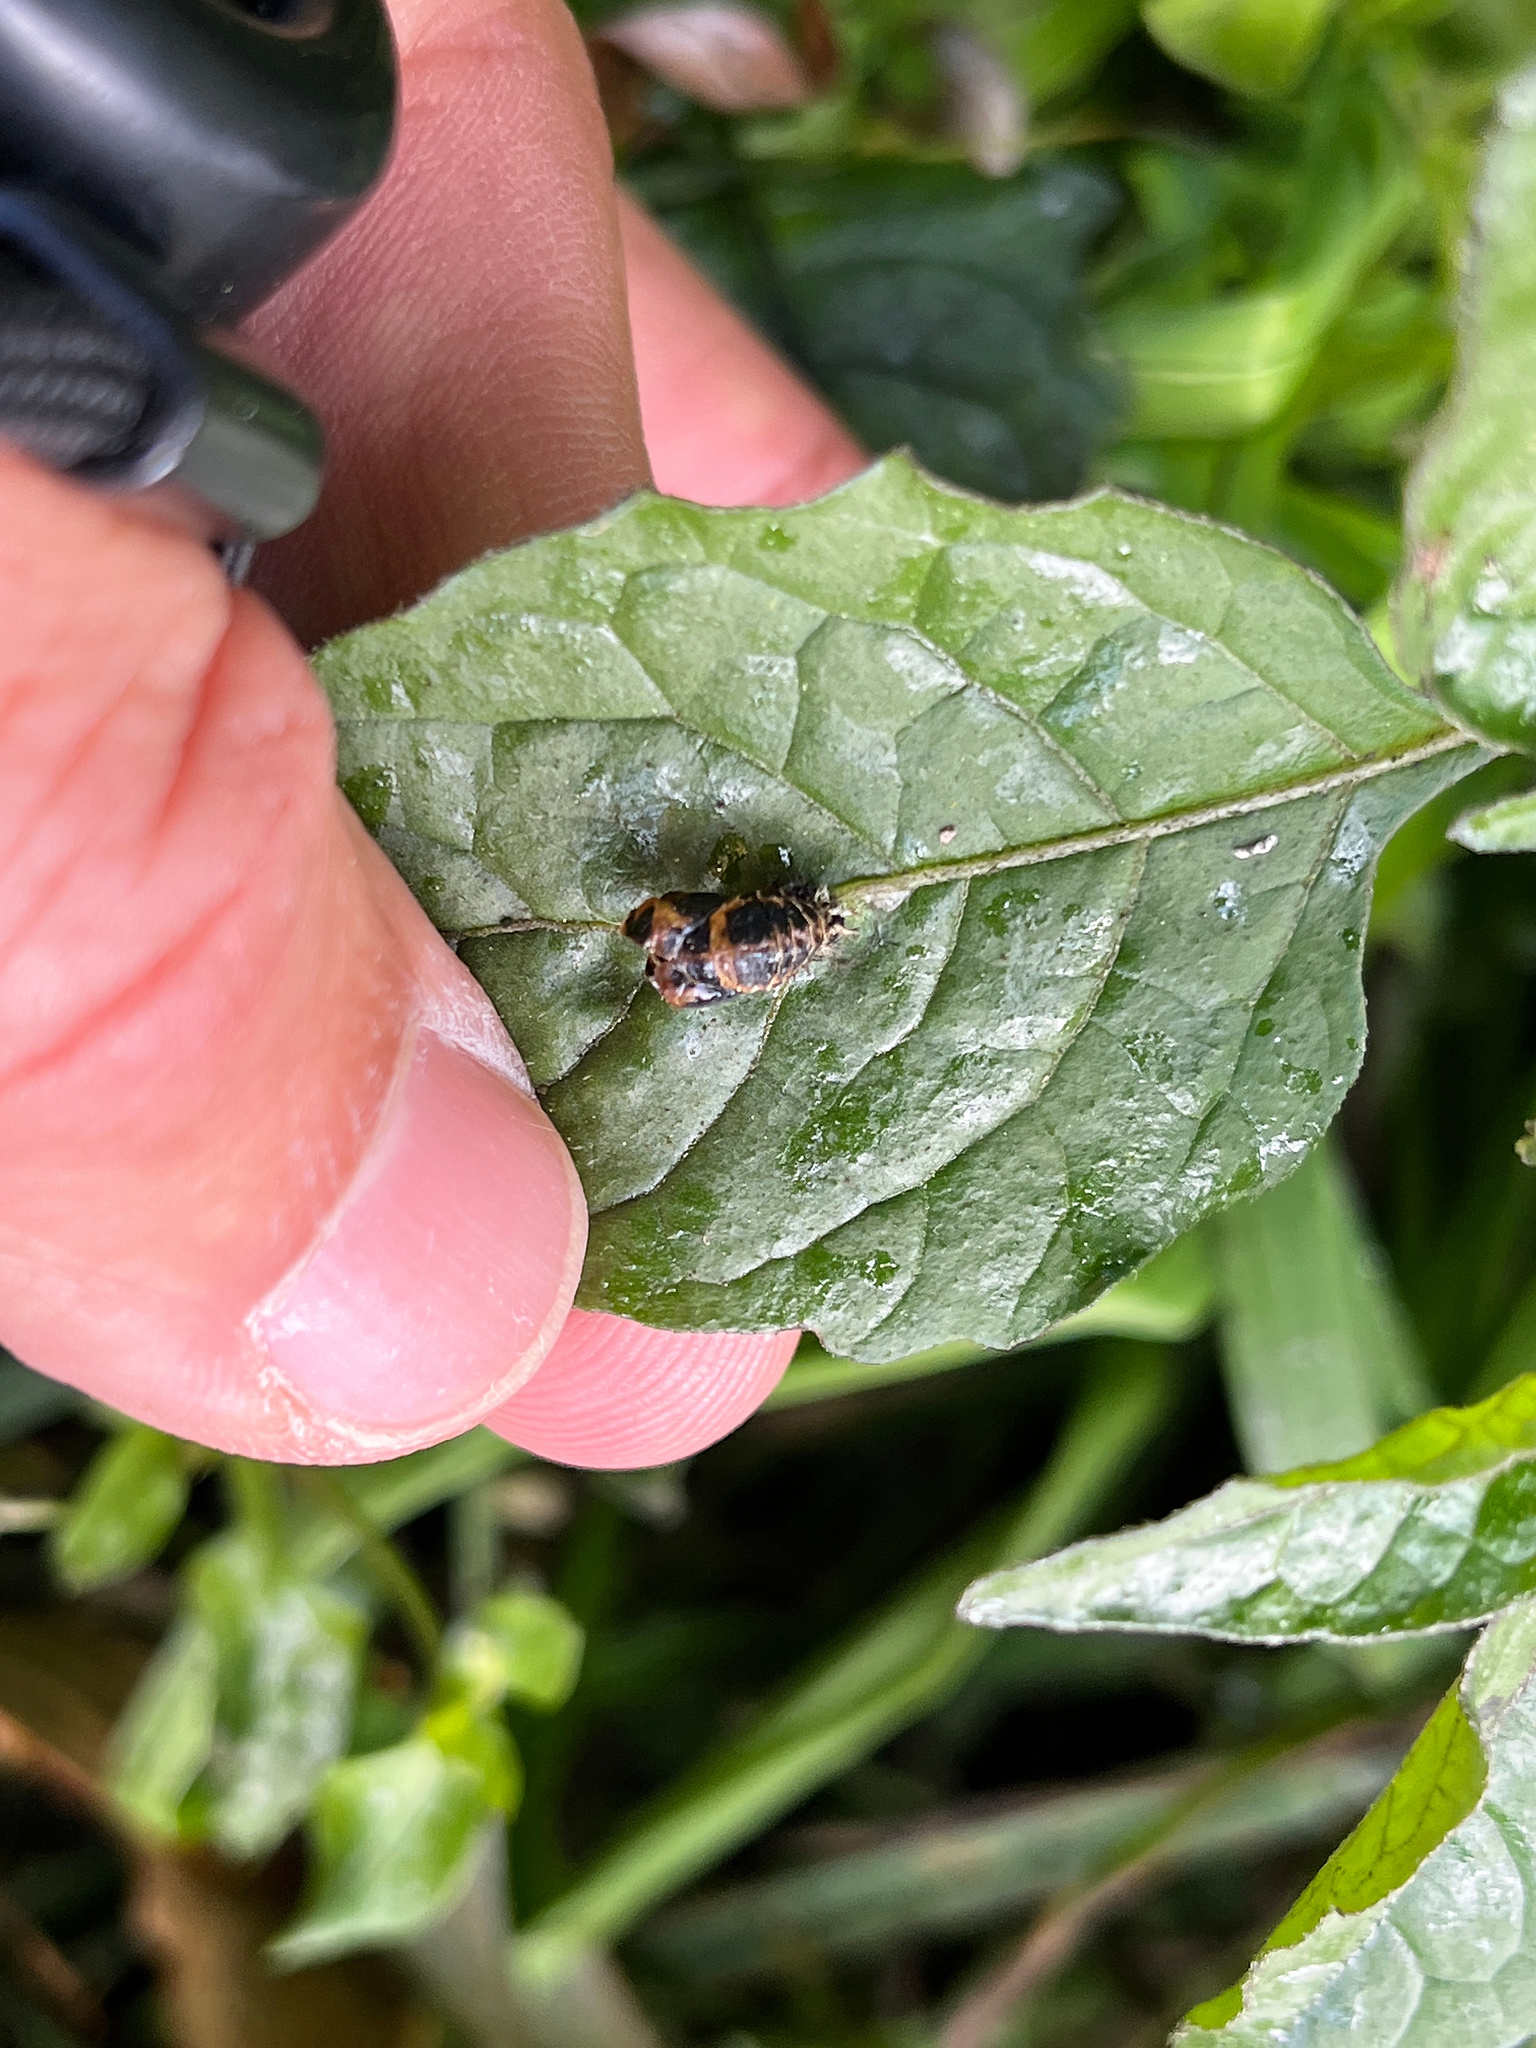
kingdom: Animalia
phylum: Arthropoda
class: Insecta
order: Coleoptera
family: Coccinellidae
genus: Harmonia
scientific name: Harmonia axyridis
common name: Harlequin ladybird
